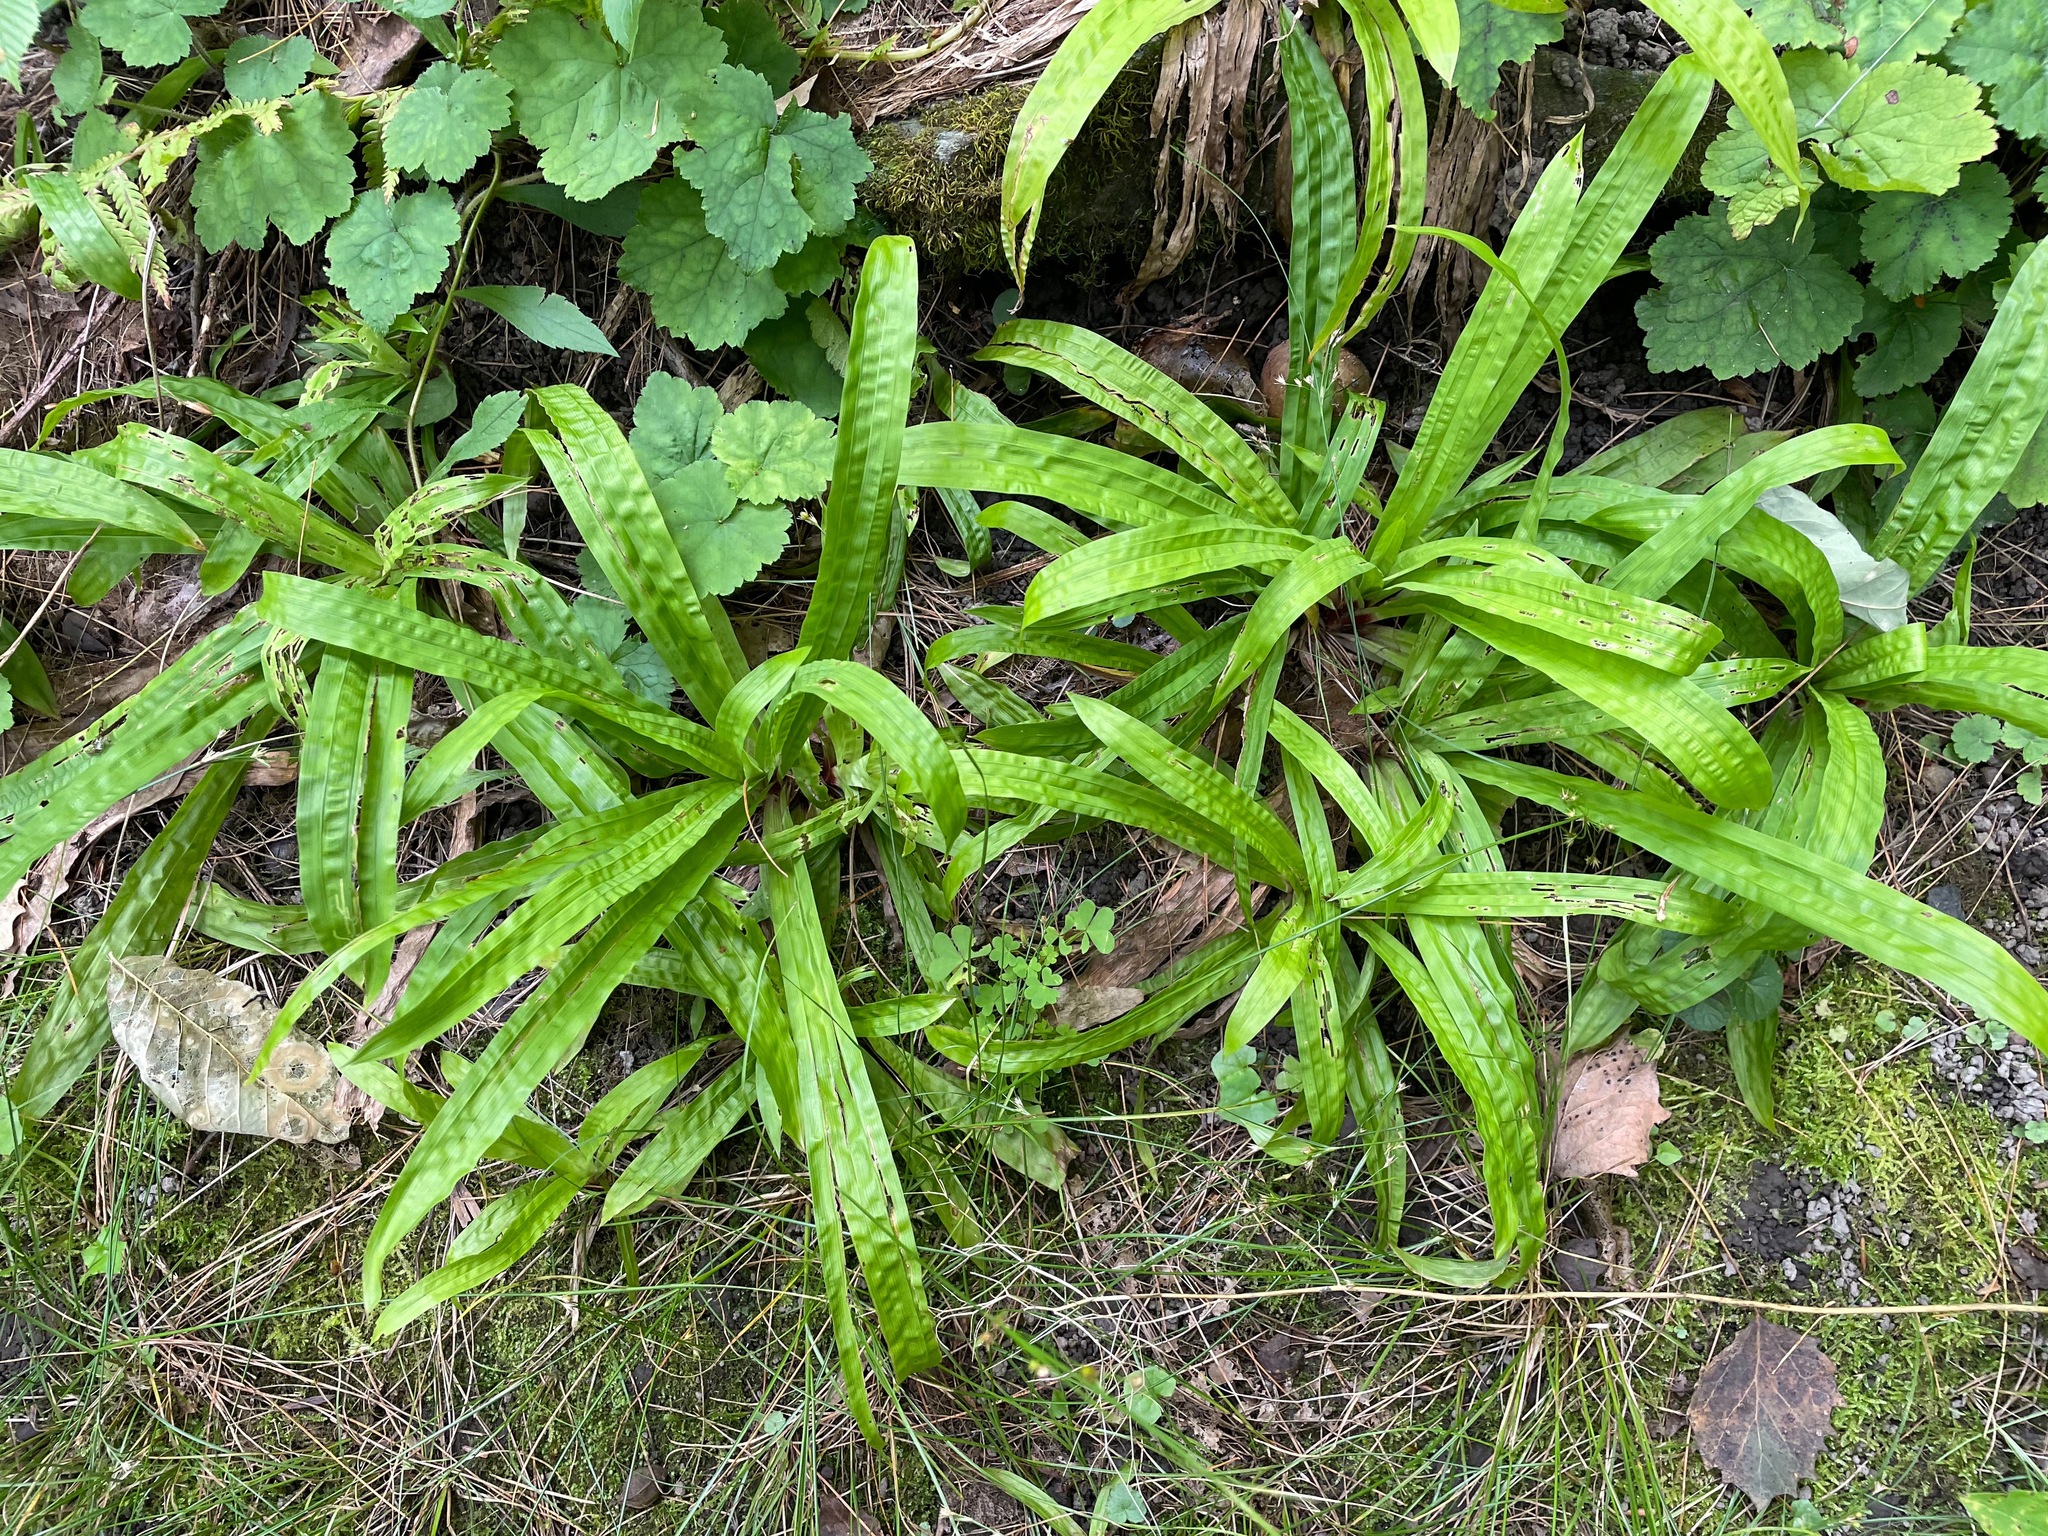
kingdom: Plantae
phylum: Tracheophyta
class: Liliopsida
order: Poales
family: Cyperaceae
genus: Carex
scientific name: Carex plantaginea
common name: Plantain-leaved sedge
